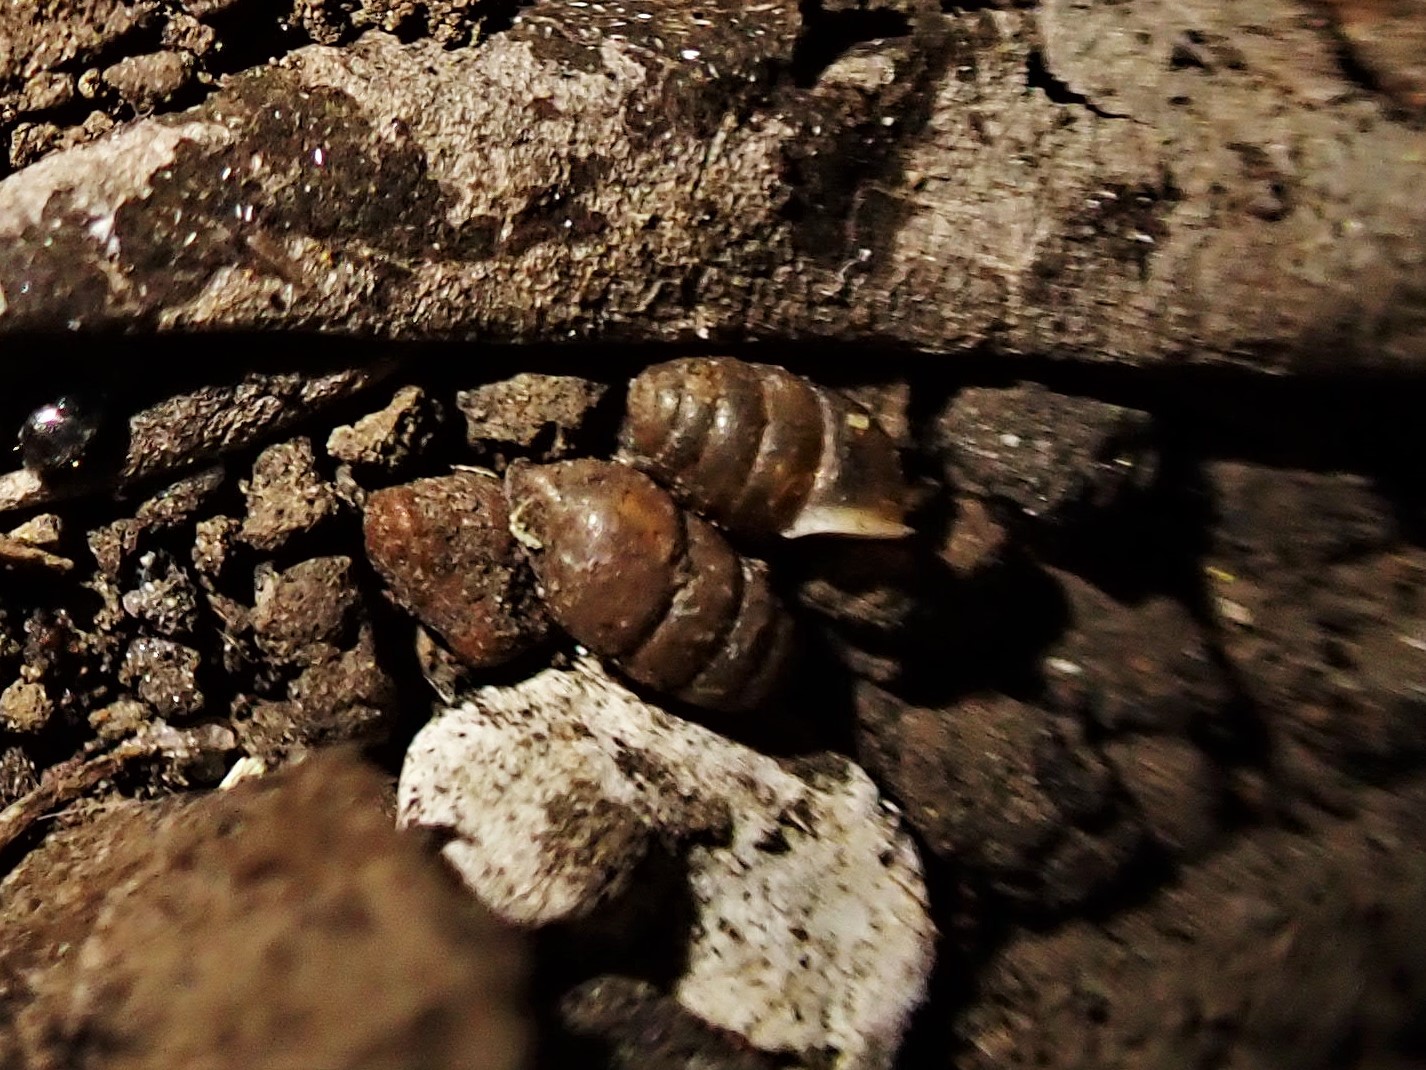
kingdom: Animalia
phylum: Mollusca
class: Gastropoda
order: Stylommatophora
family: Lauriidae
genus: Lauria
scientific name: Lauria cylindracea
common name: Common chrysalis snail
